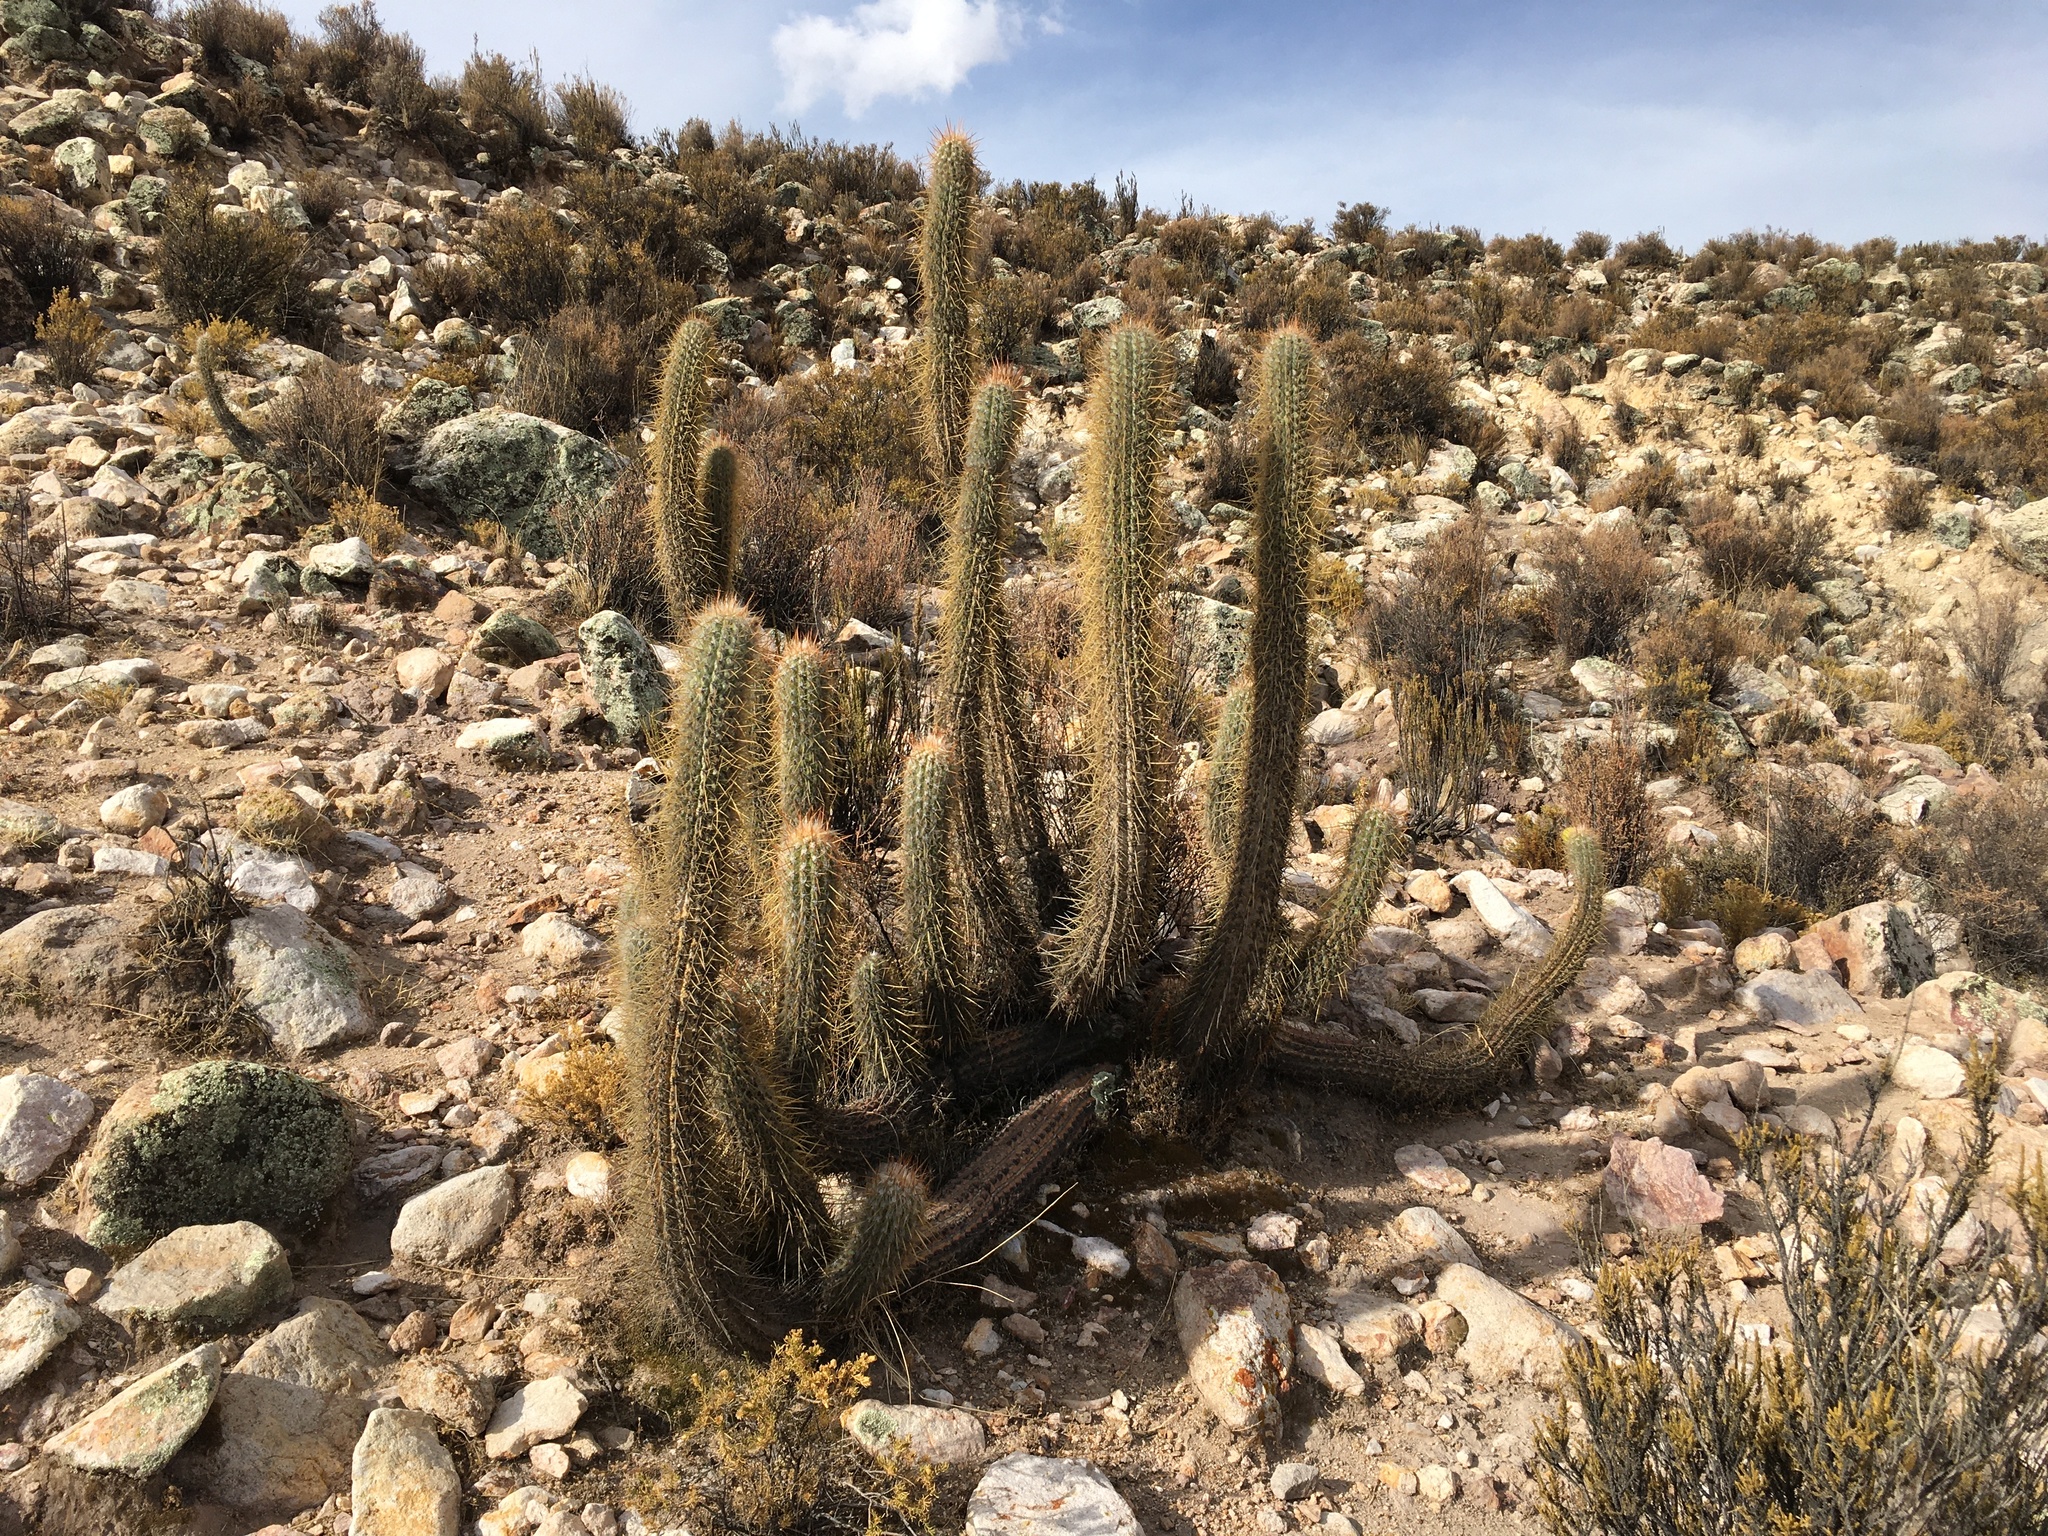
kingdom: Plantae
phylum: Tracheophyta
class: Magnoliopsida
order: Caryophyllales
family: Cactaceae
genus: Oreocereus
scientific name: Oreocereus leucotrichus
